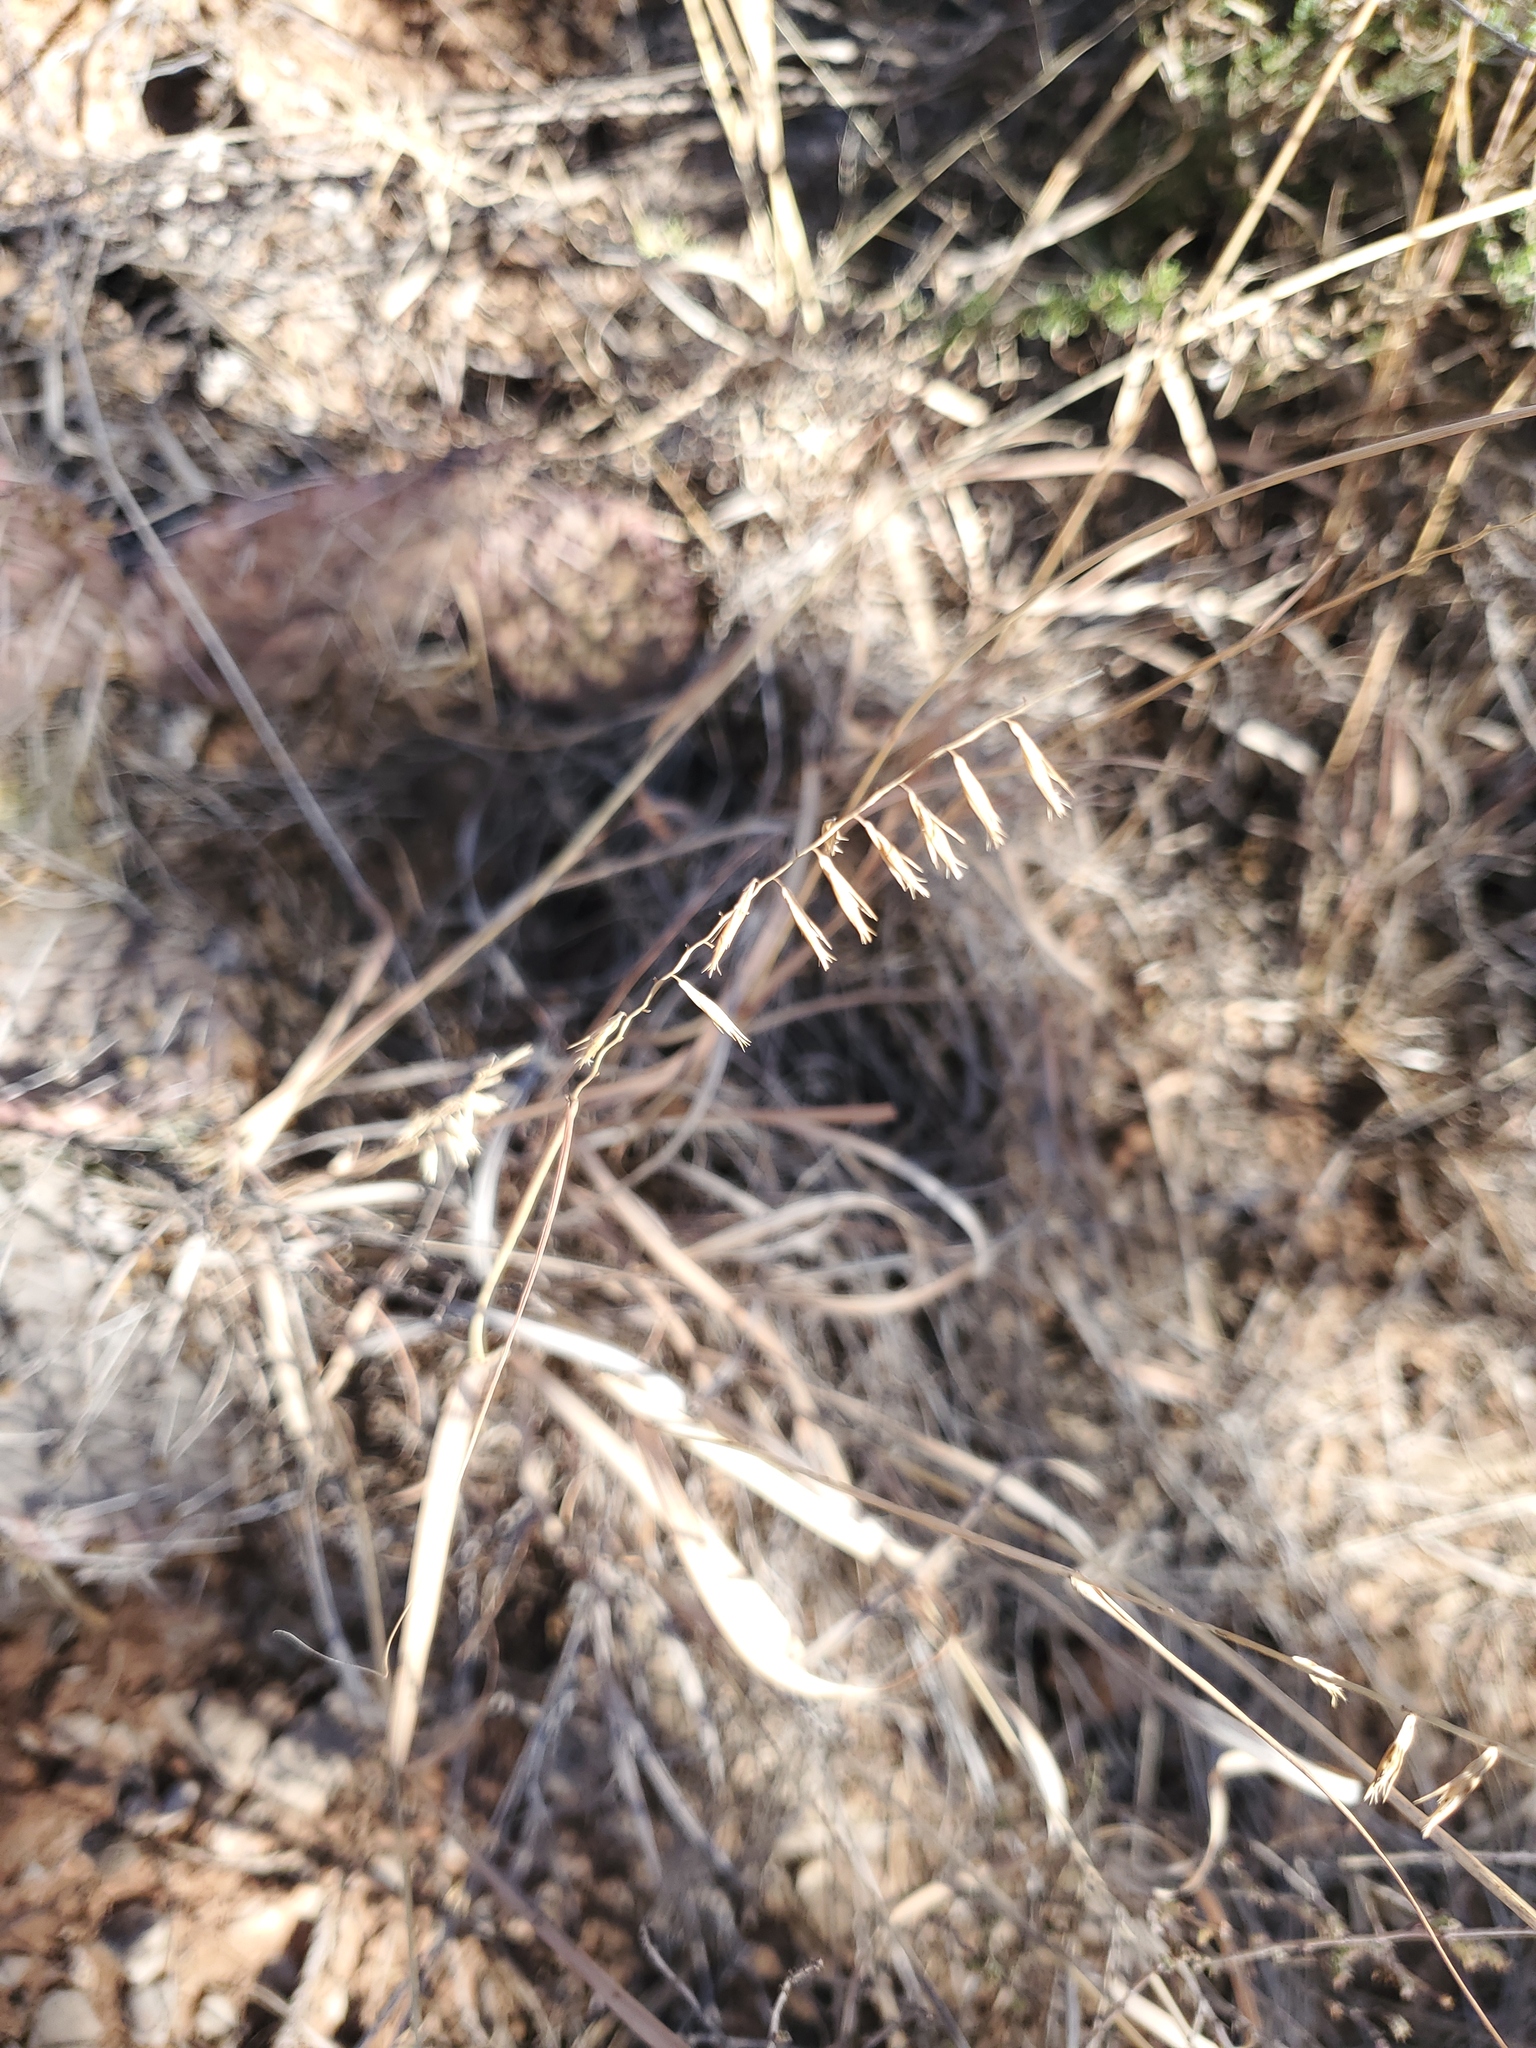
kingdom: Plantae
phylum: Tracheophyta
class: Liliopsida
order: Poales
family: Poaceae
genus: Bouteloua
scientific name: Bouteloua curtipendula
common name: Side-oats grama
